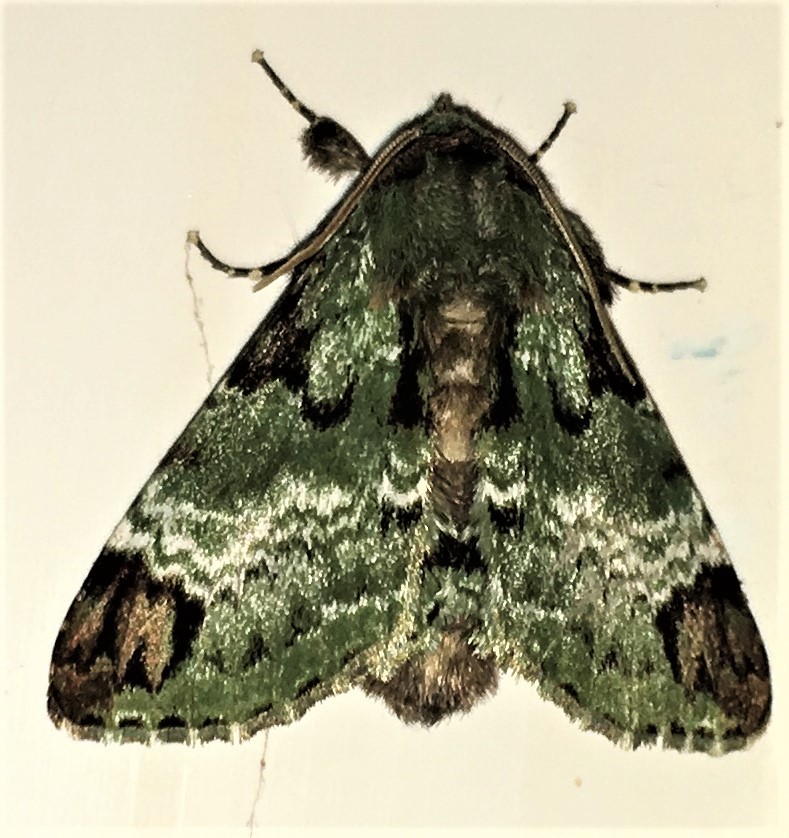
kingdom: Animalia
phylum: Arthropoda
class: Insecta
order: Lepidoptera
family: Erebidae
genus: Pachyplastis
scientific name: Pachyplastis apicalis
